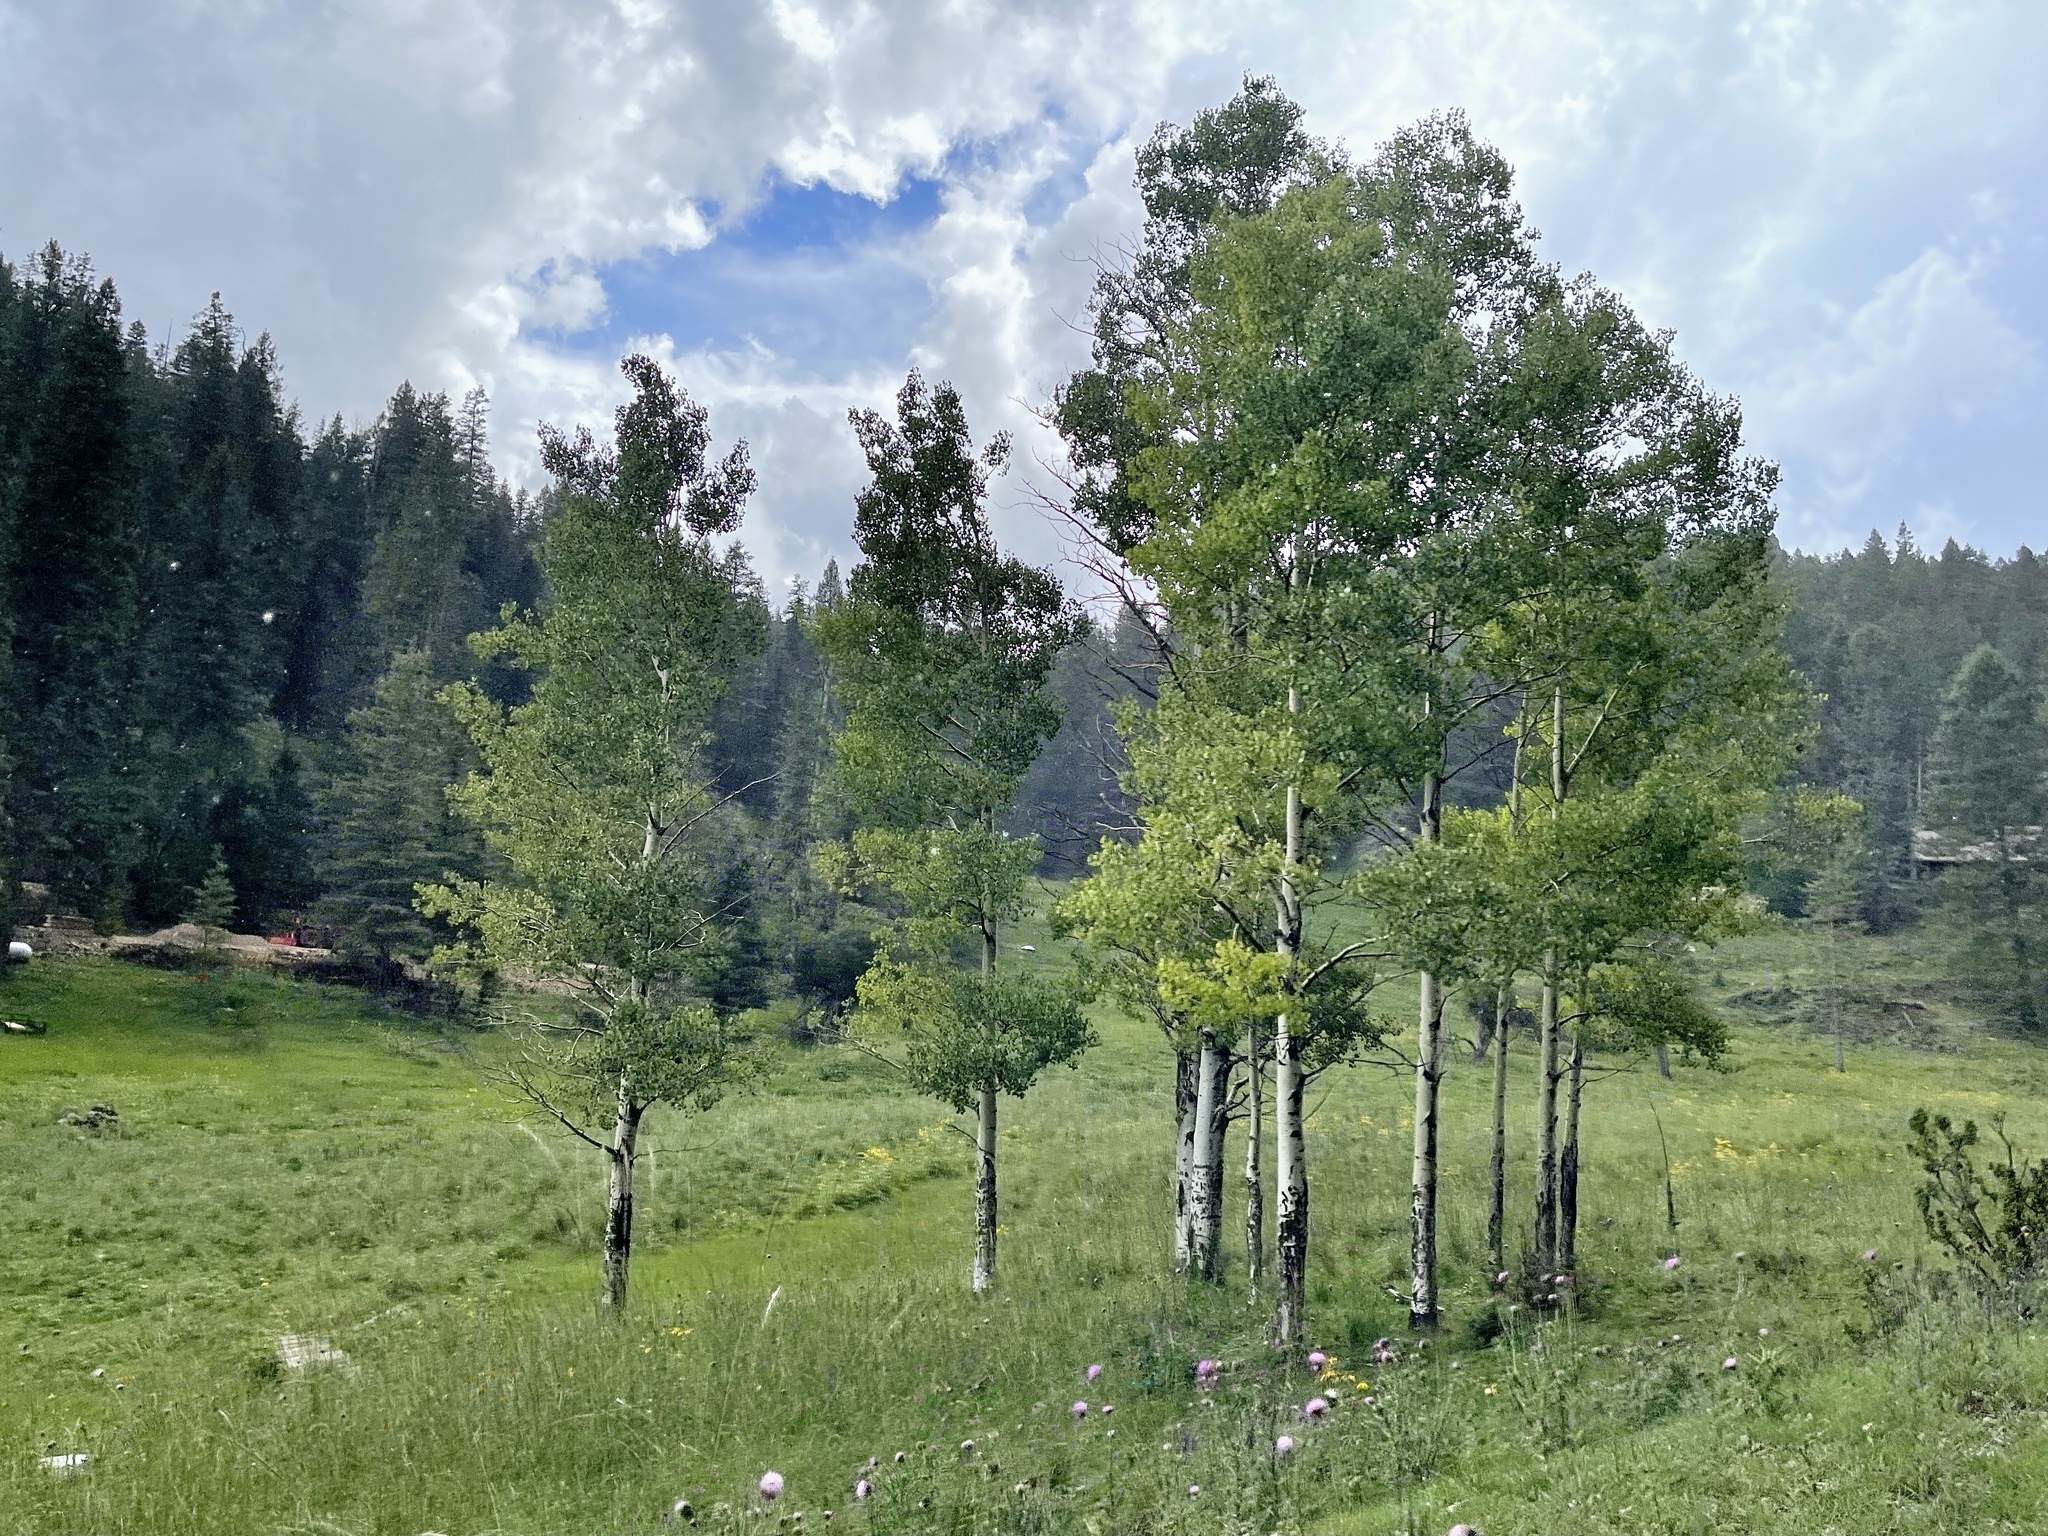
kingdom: Plantae
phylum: Tracheophyta
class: Magnoliopsida
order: Malpighiales
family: Salicaceae
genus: Populus
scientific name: Populus tremuloides
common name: Quaking aspen
